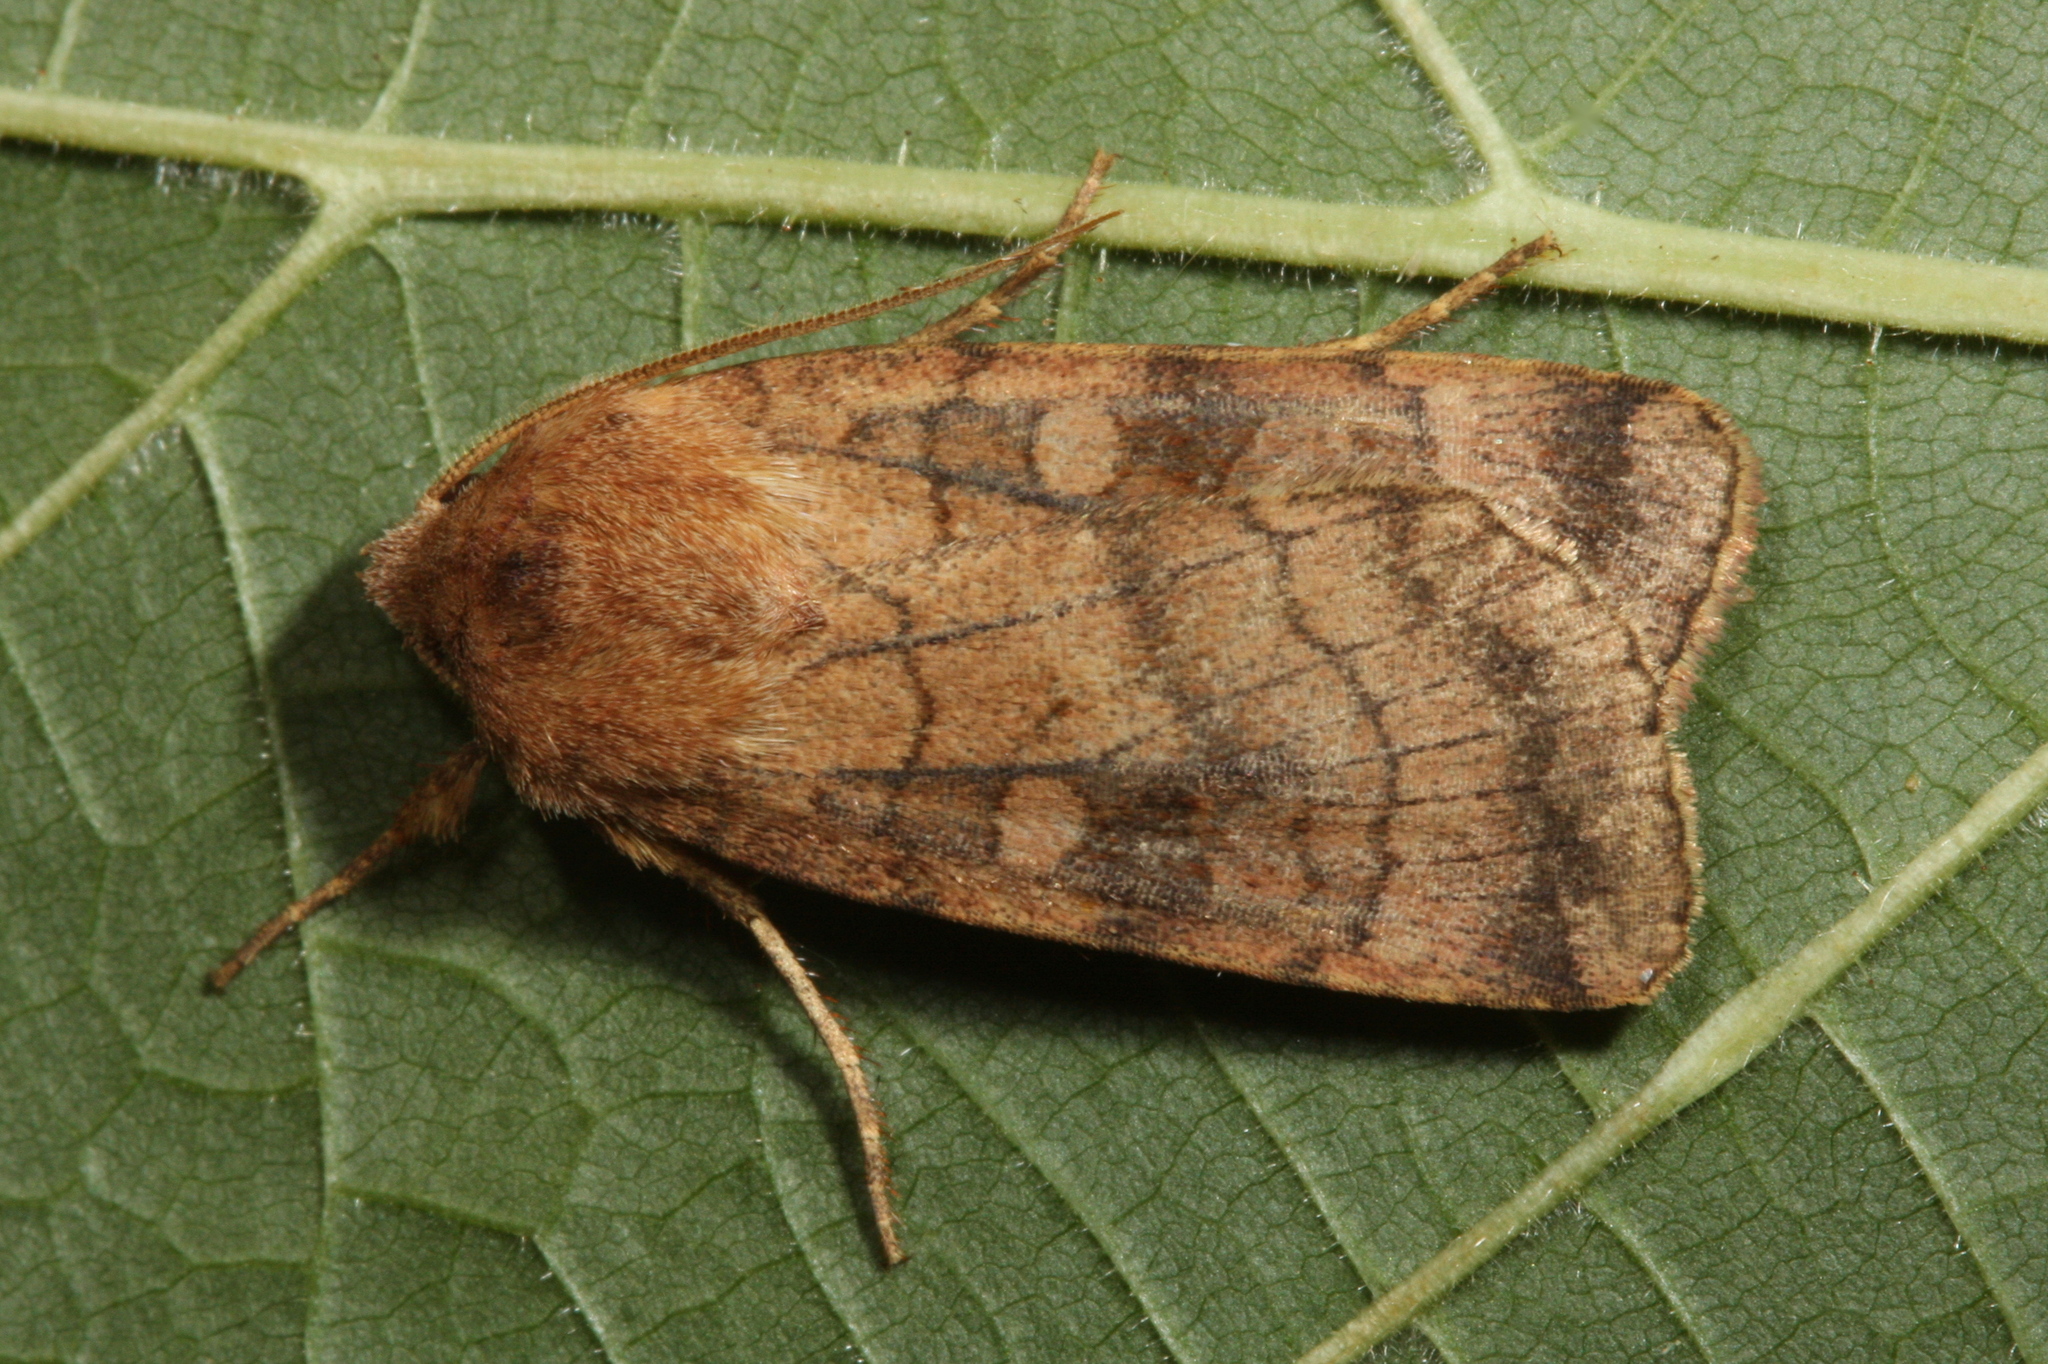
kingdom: Animalia
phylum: Arthropoda
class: Insecta
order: Lepidoptera
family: Noctuidae
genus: Xestia
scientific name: Xestia sexstrigata
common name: Six-striped rustic
